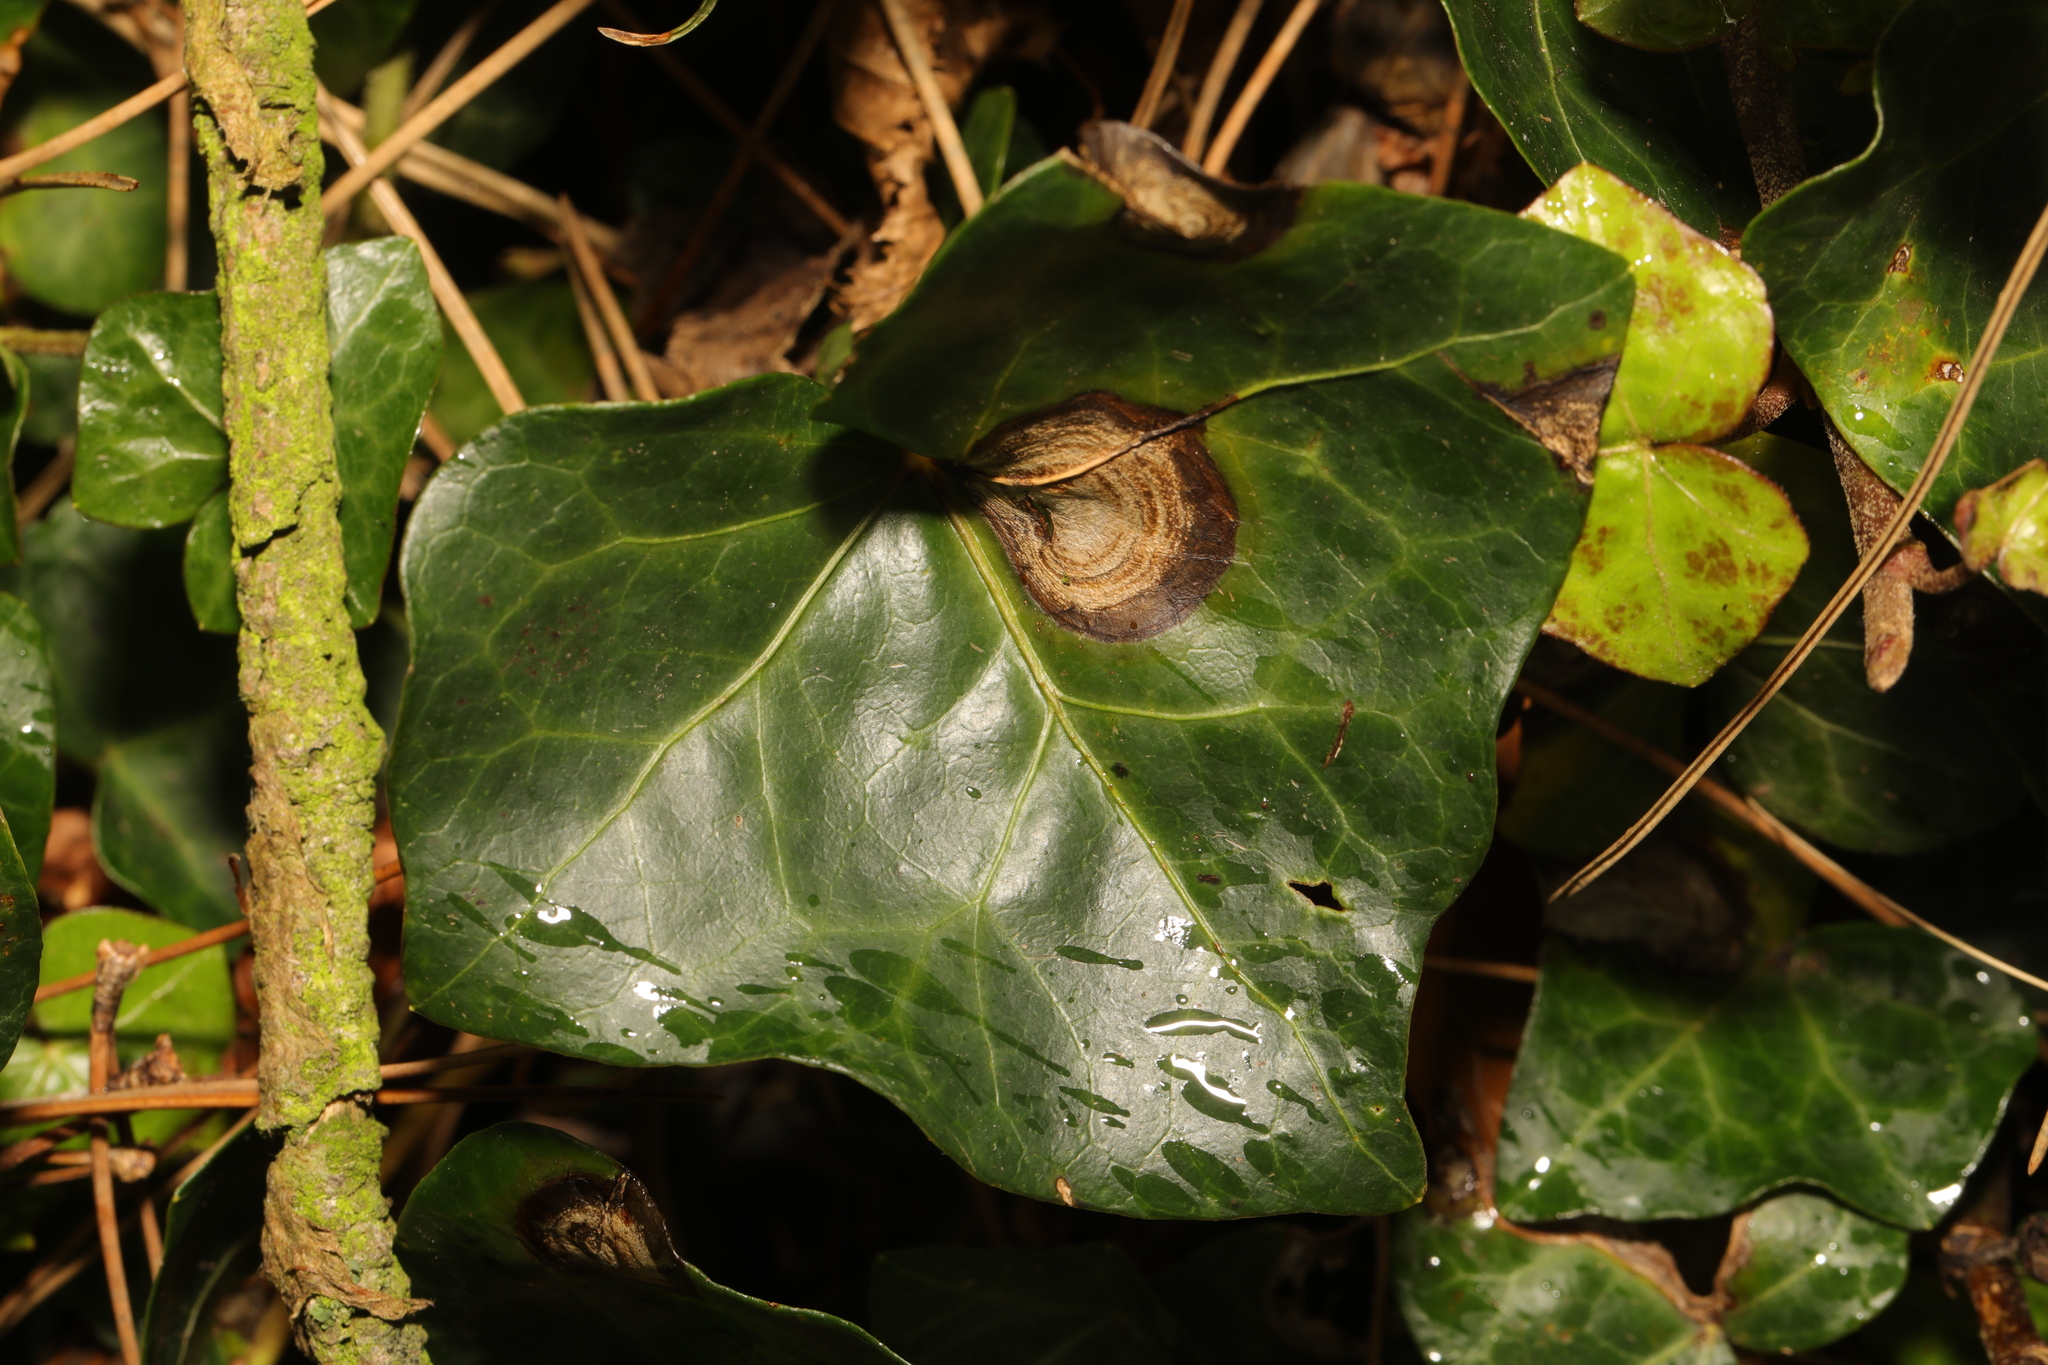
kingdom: Fungi
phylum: Ascomycota
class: Dothideomycetes
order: Pleosporales
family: Didymellaceae
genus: Boeremia
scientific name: Boeremia hedericola
